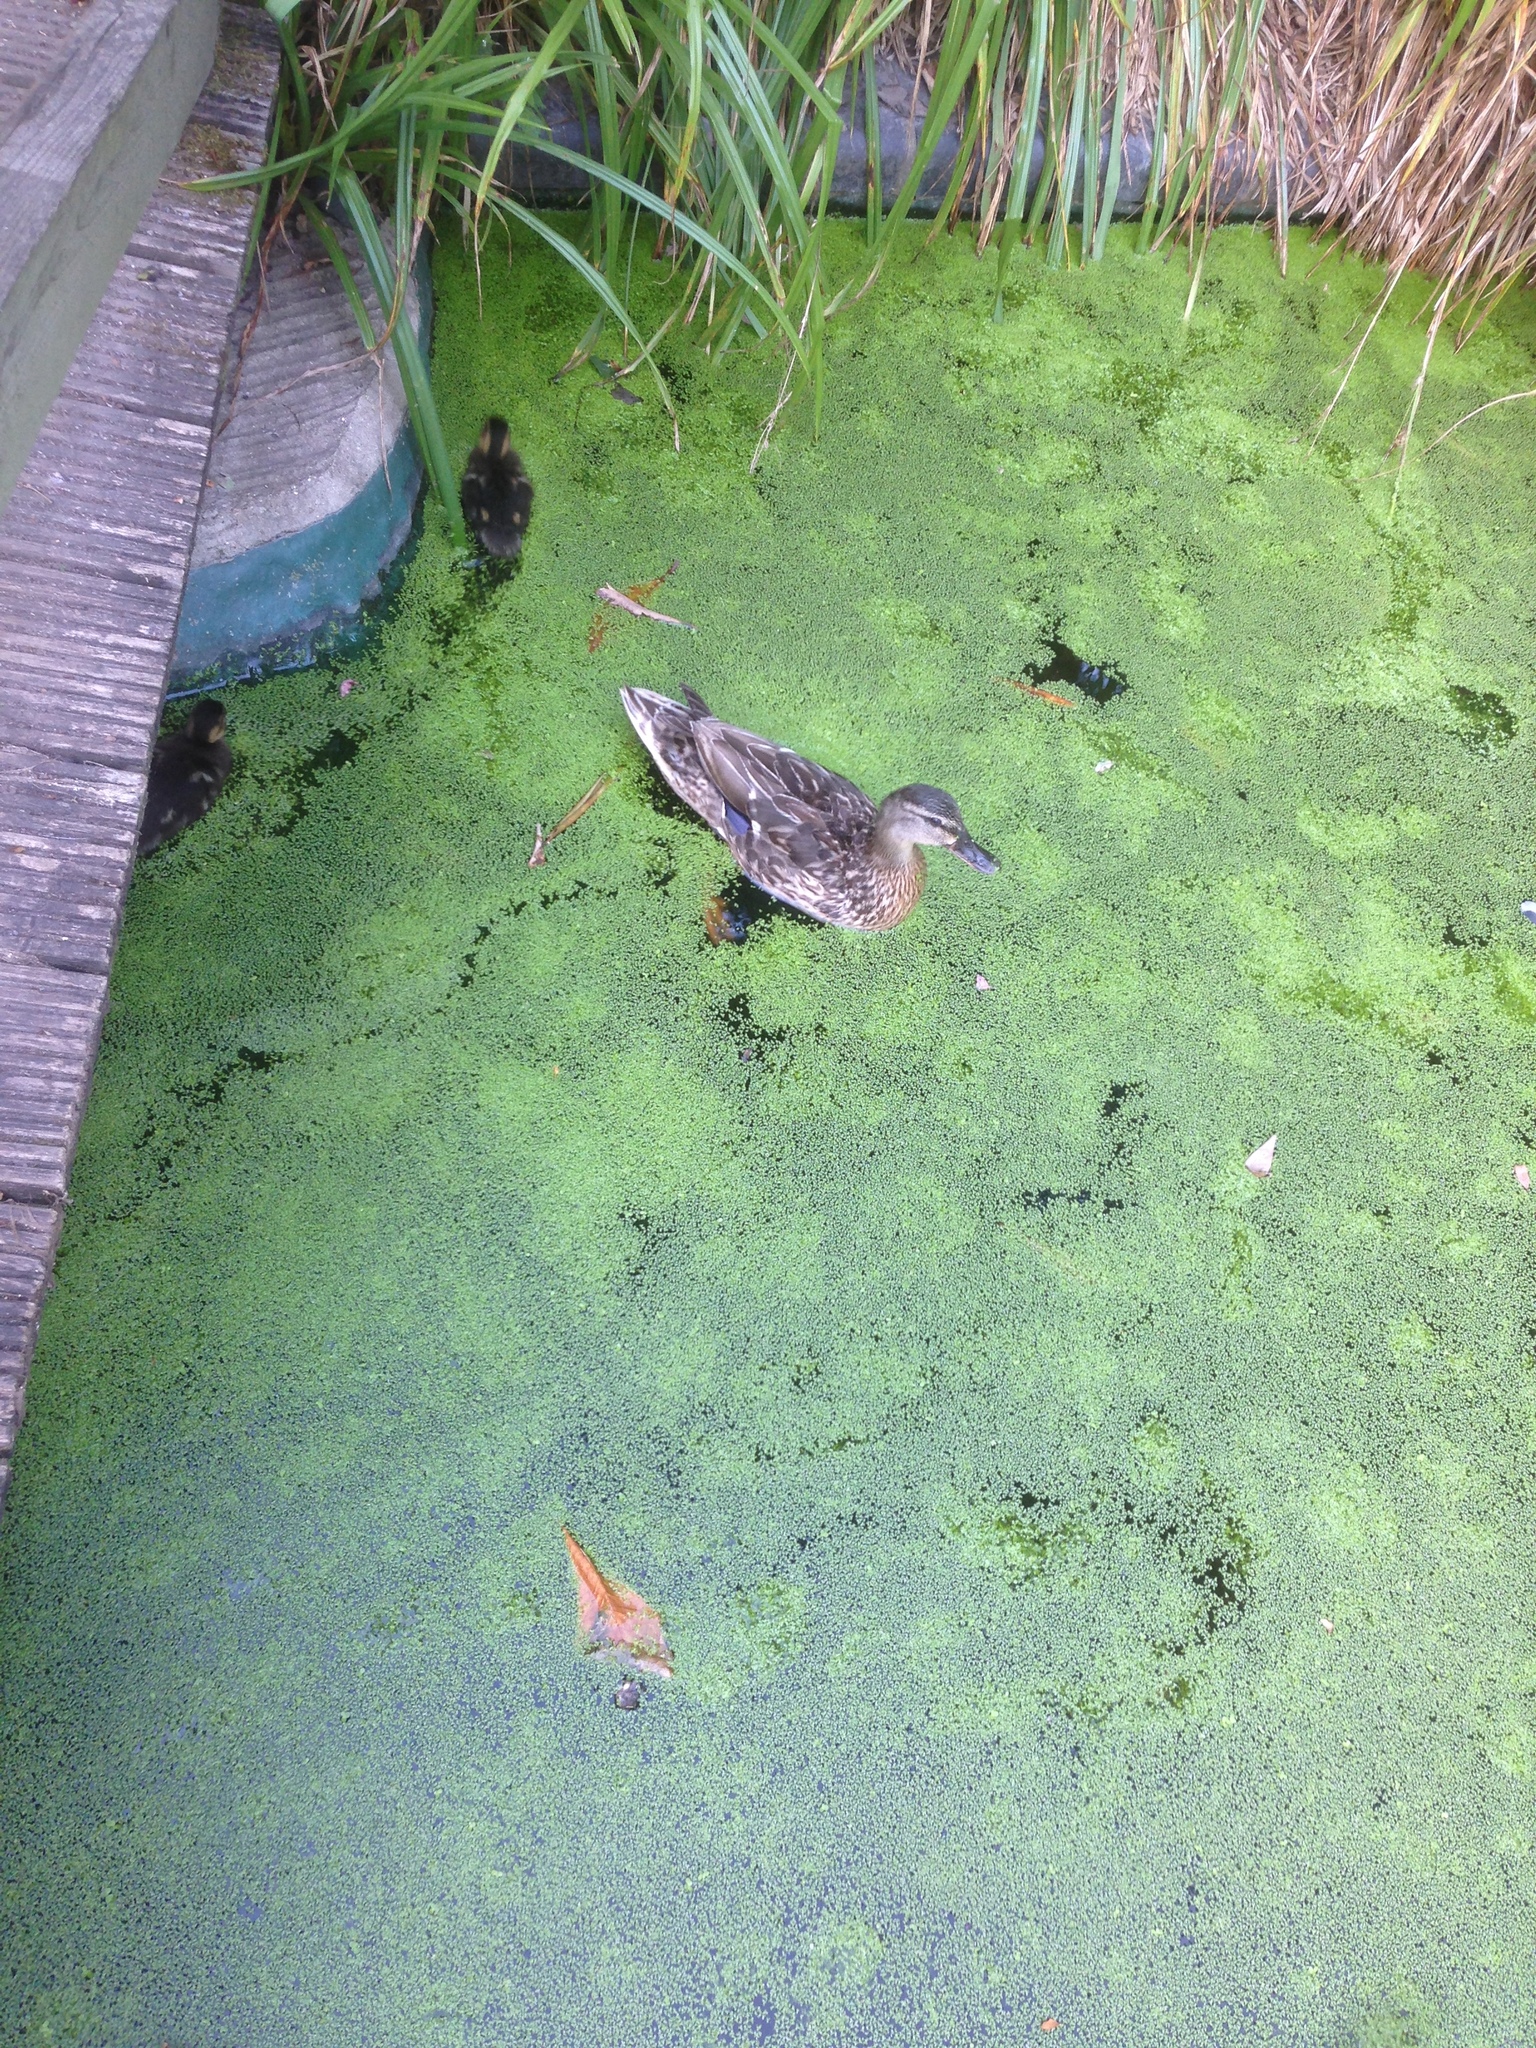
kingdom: Animalia
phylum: Chordata
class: Aves
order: Anseriformes
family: Anatidae
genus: Anas
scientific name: Anas platyrhynchos
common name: Mallard
